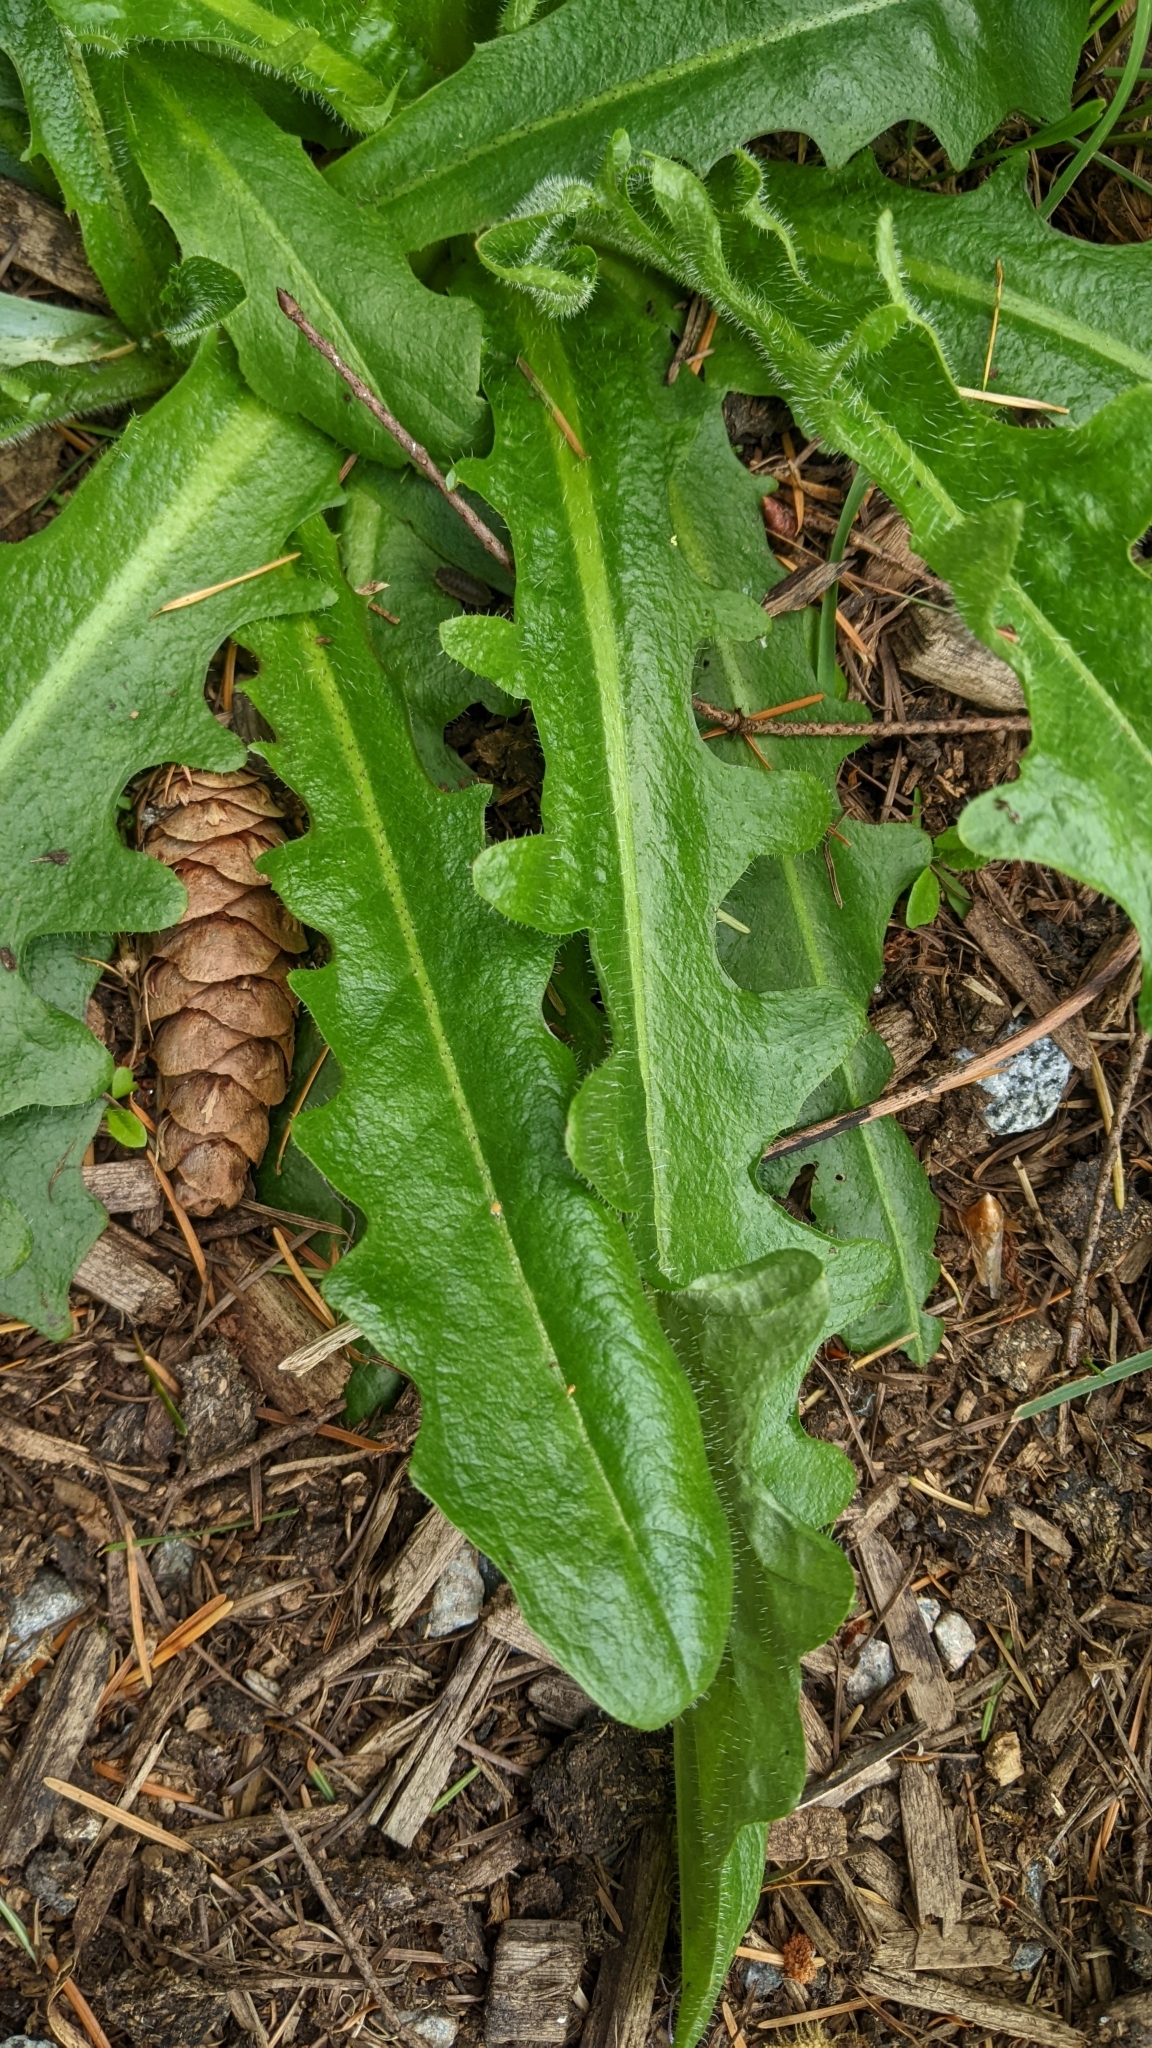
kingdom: Plantae
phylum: Tracheophyta
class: Magnoliopsida
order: Asterales
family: Asteraceae
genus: Hypochaeris
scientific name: Hypochaeris radicata
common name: Flatweed
